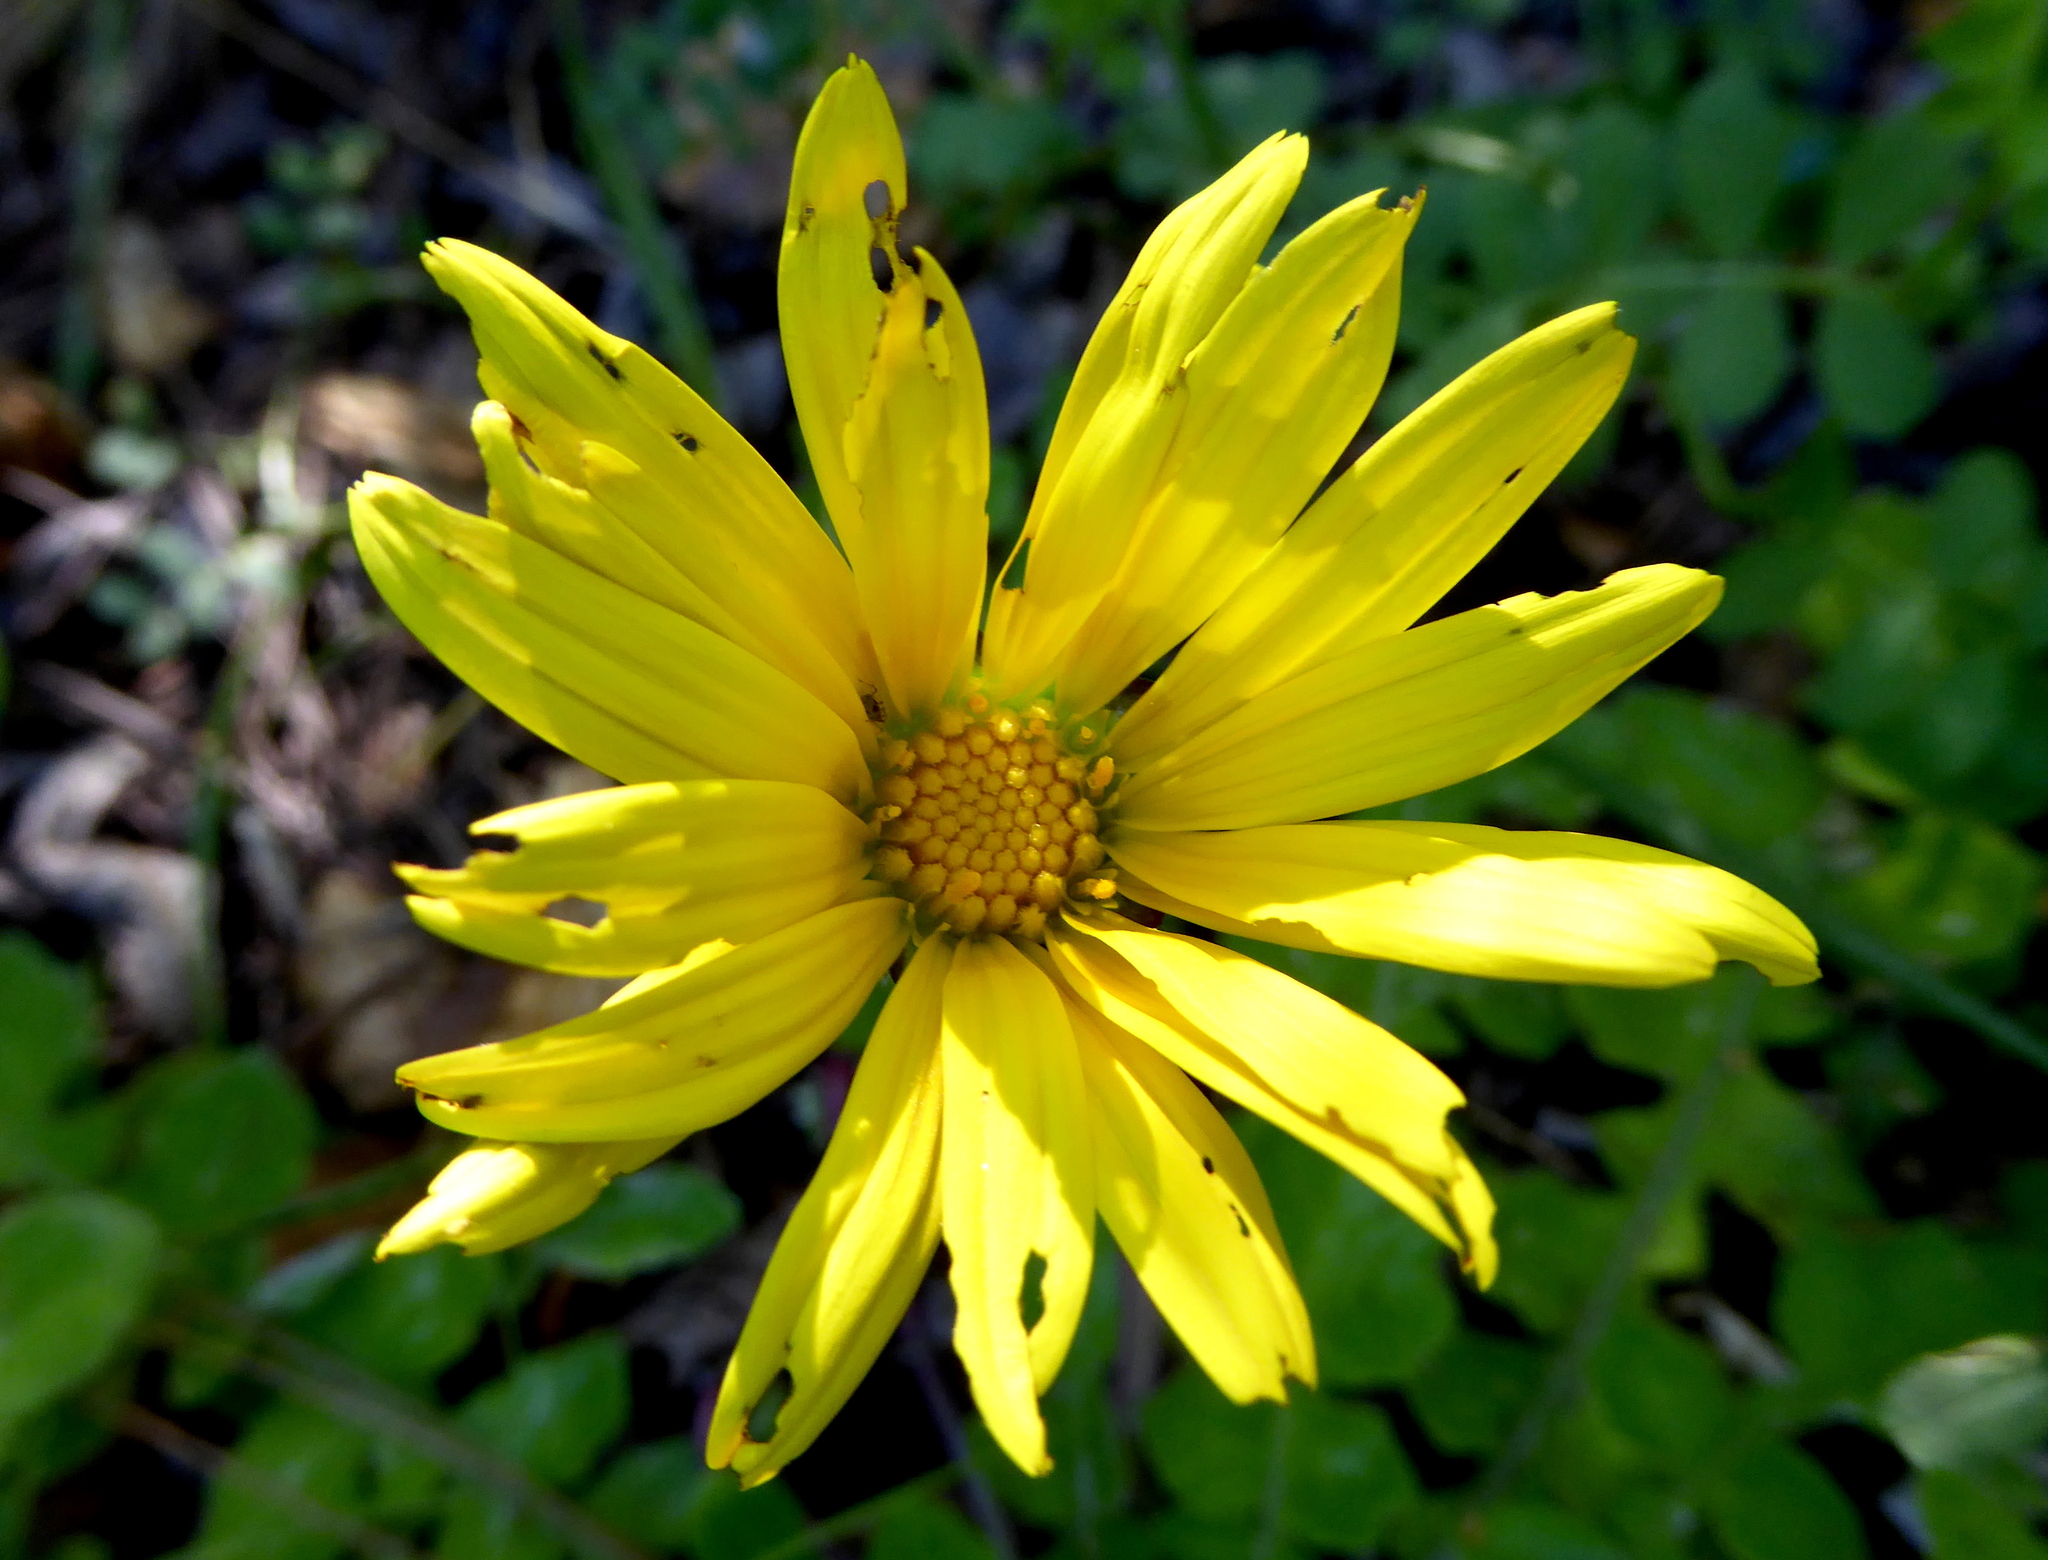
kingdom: Plantae
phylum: Tracheophyta
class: Magnoliopsida
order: Asterales
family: Asteraceae
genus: Arctotheca
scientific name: Arctotheca prostrata
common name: Capeweed
